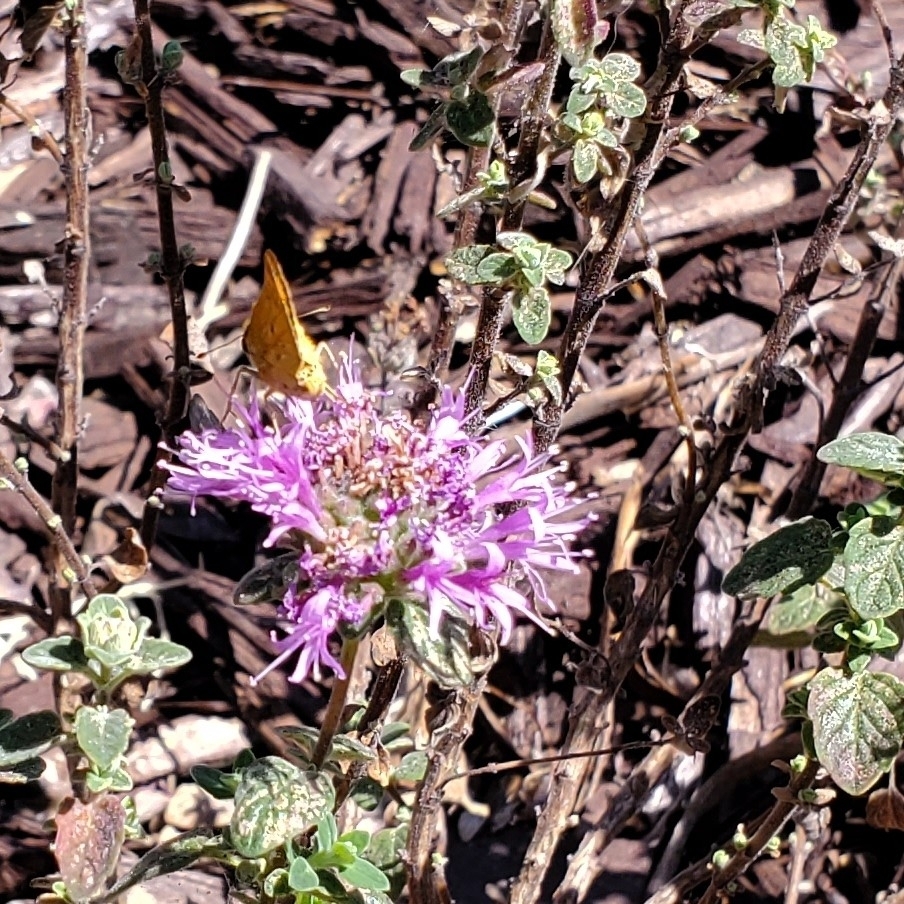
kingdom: Animalia
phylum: Arthropoda
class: Insecta
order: Lepidoptera
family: Hesperiidae
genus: Hylephila
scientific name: Hylephila phyleus
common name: Fiery skipper
